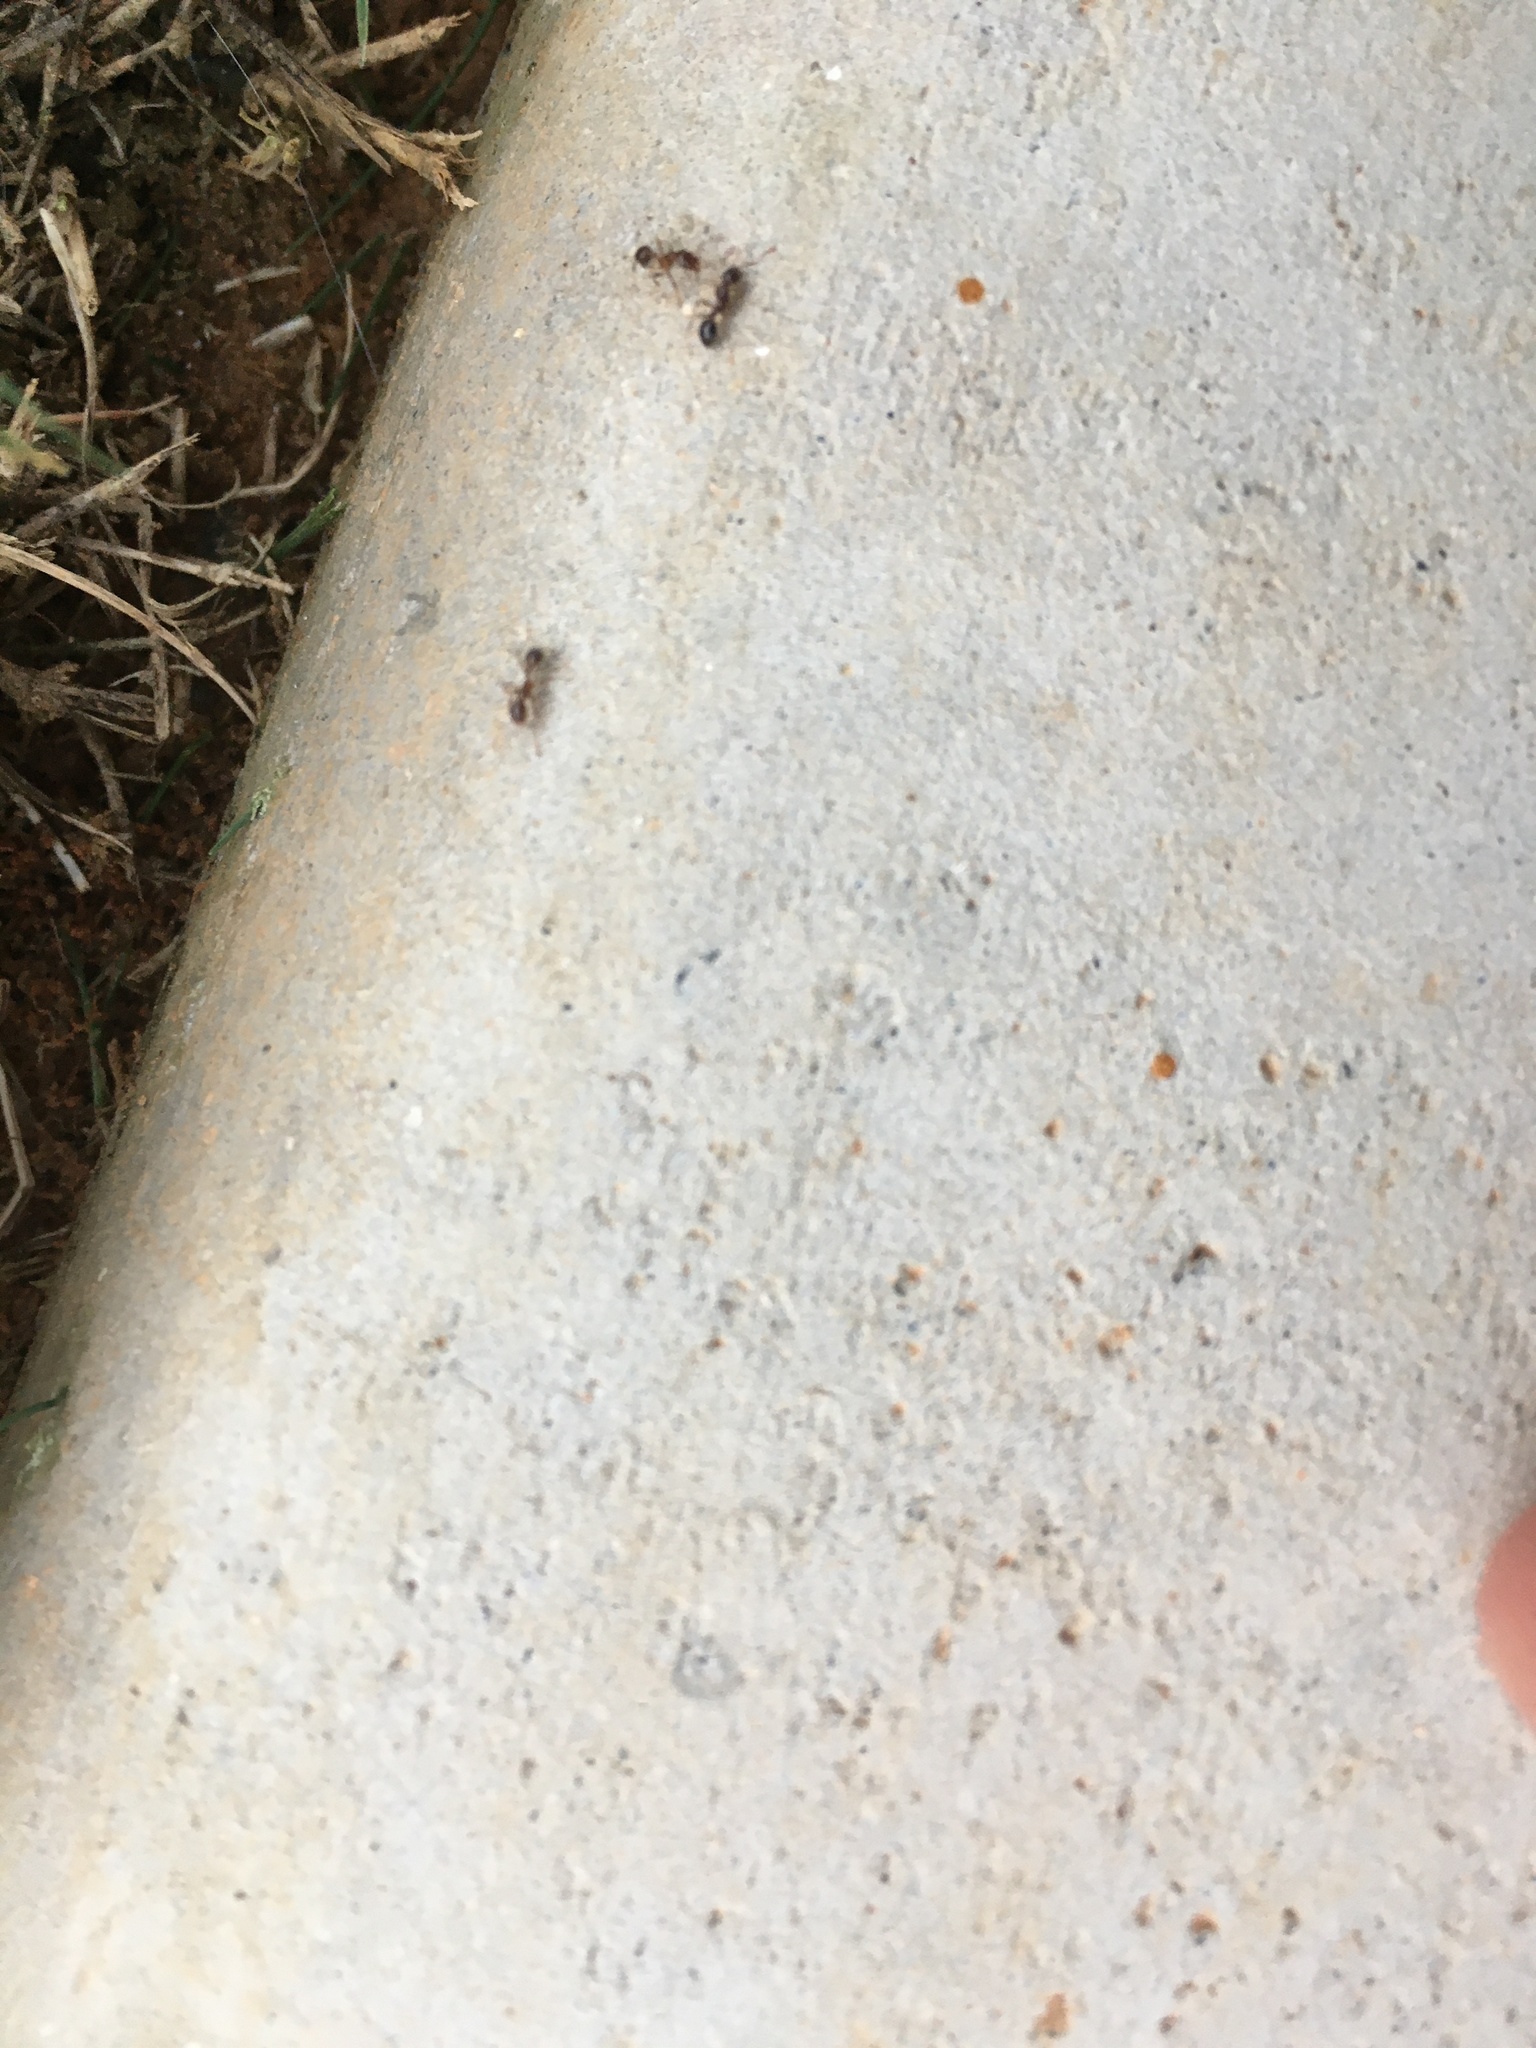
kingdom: Animalia
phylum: Arthropoda
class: Insecta
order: Hymenoptera
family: Formicidae
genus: Solenopsis
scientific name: Solenopsis invicta
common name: Red imported fire ant
